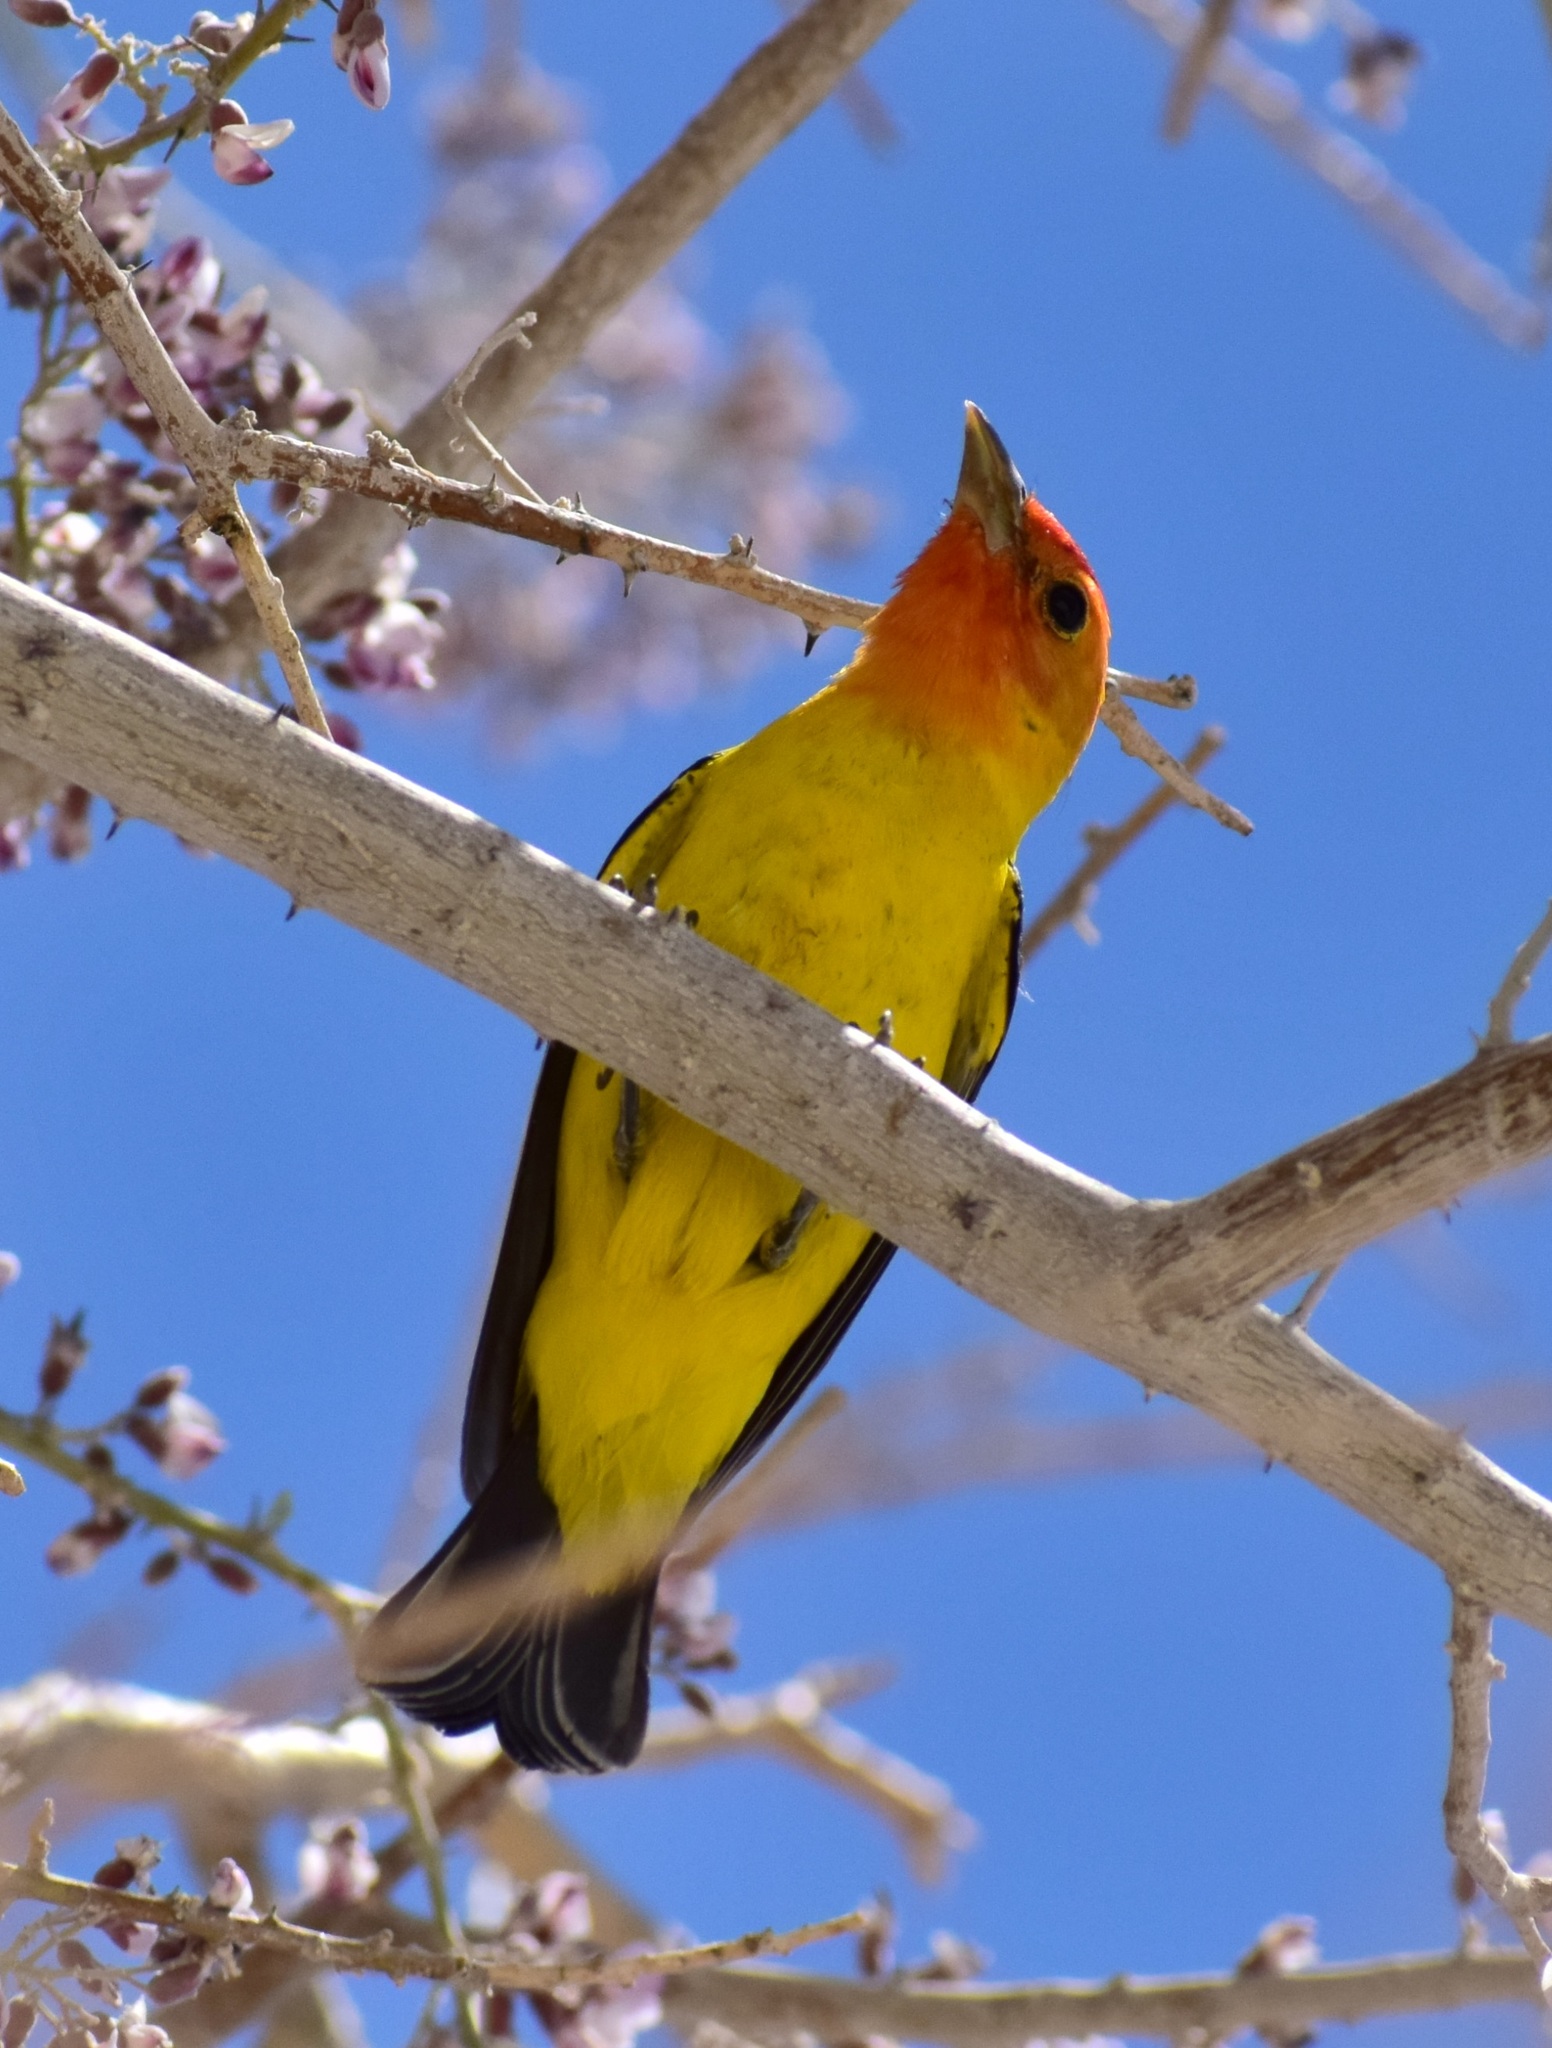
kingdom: Animalia
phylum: Chordata
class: Aves
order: Passeriformes
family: Cardinalidae
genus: Piranga
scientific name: Piranga ludoviciana
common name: Western tanager
